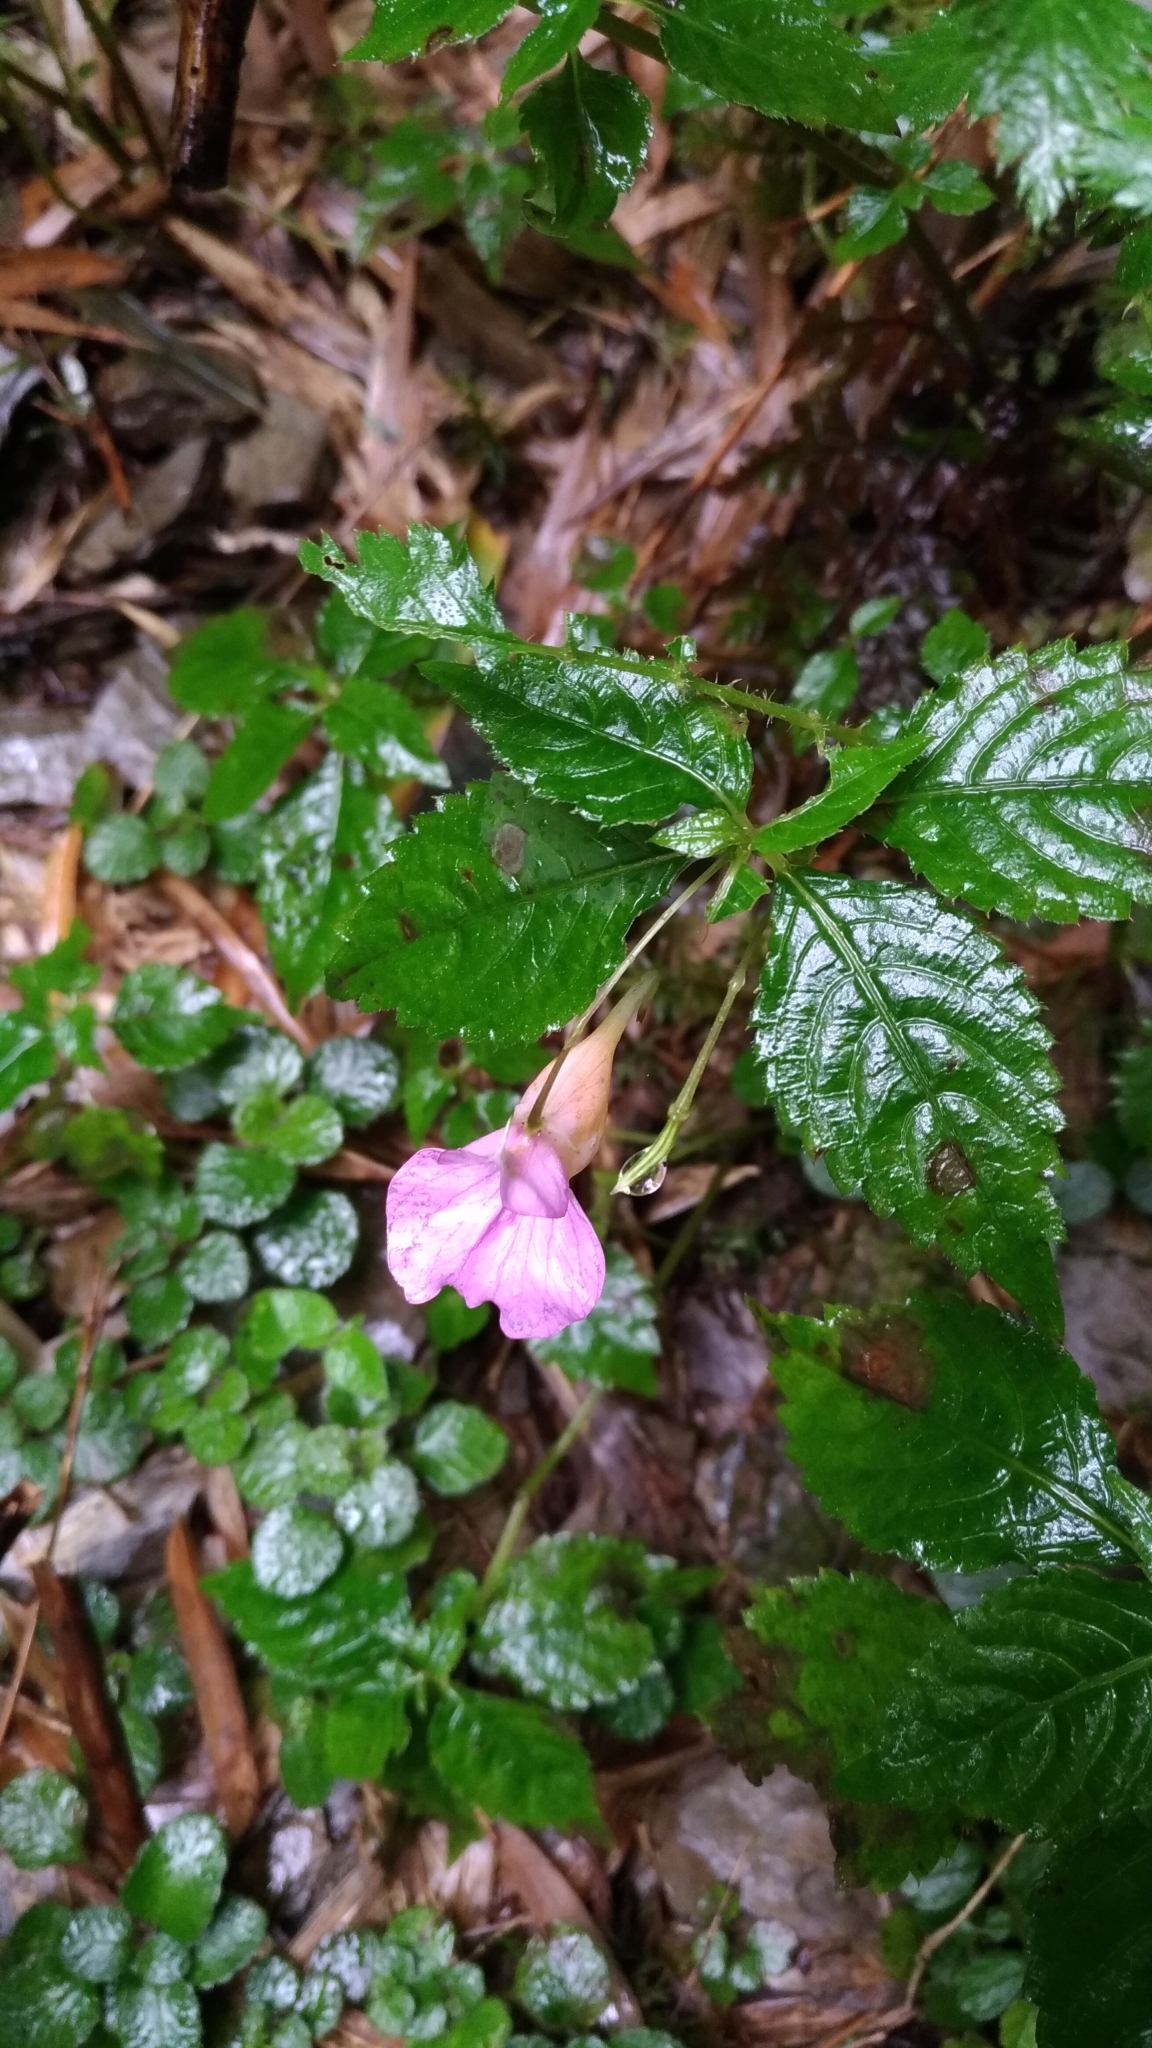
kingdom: Plantae
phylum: Tracheophyta
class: Magnoliopsida
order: Ericales
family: Balsaminaceae
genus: Impatiens
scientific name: Impatiens uniflora
